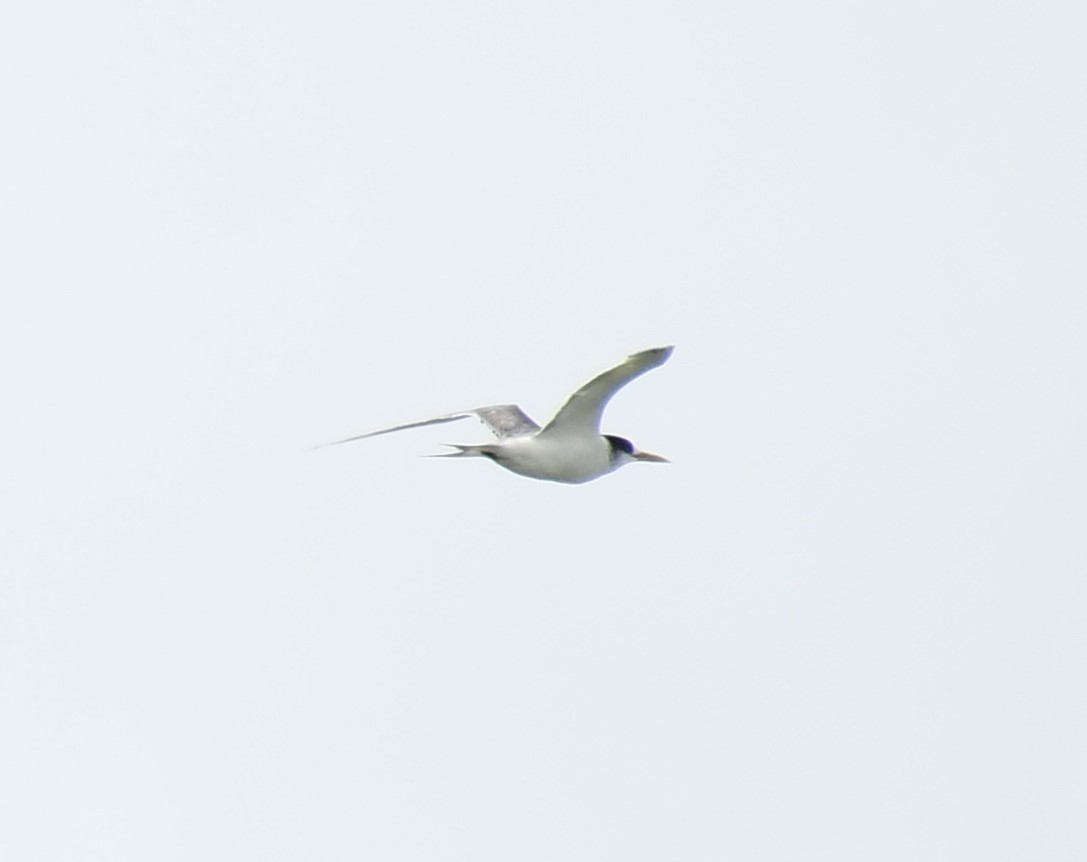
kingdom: Animalia
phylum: Chordata
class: Aves
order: Charadriiformes
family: Laridae
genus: Thalasseus
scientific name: Thalasseus bergii
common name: Greater crested tern
